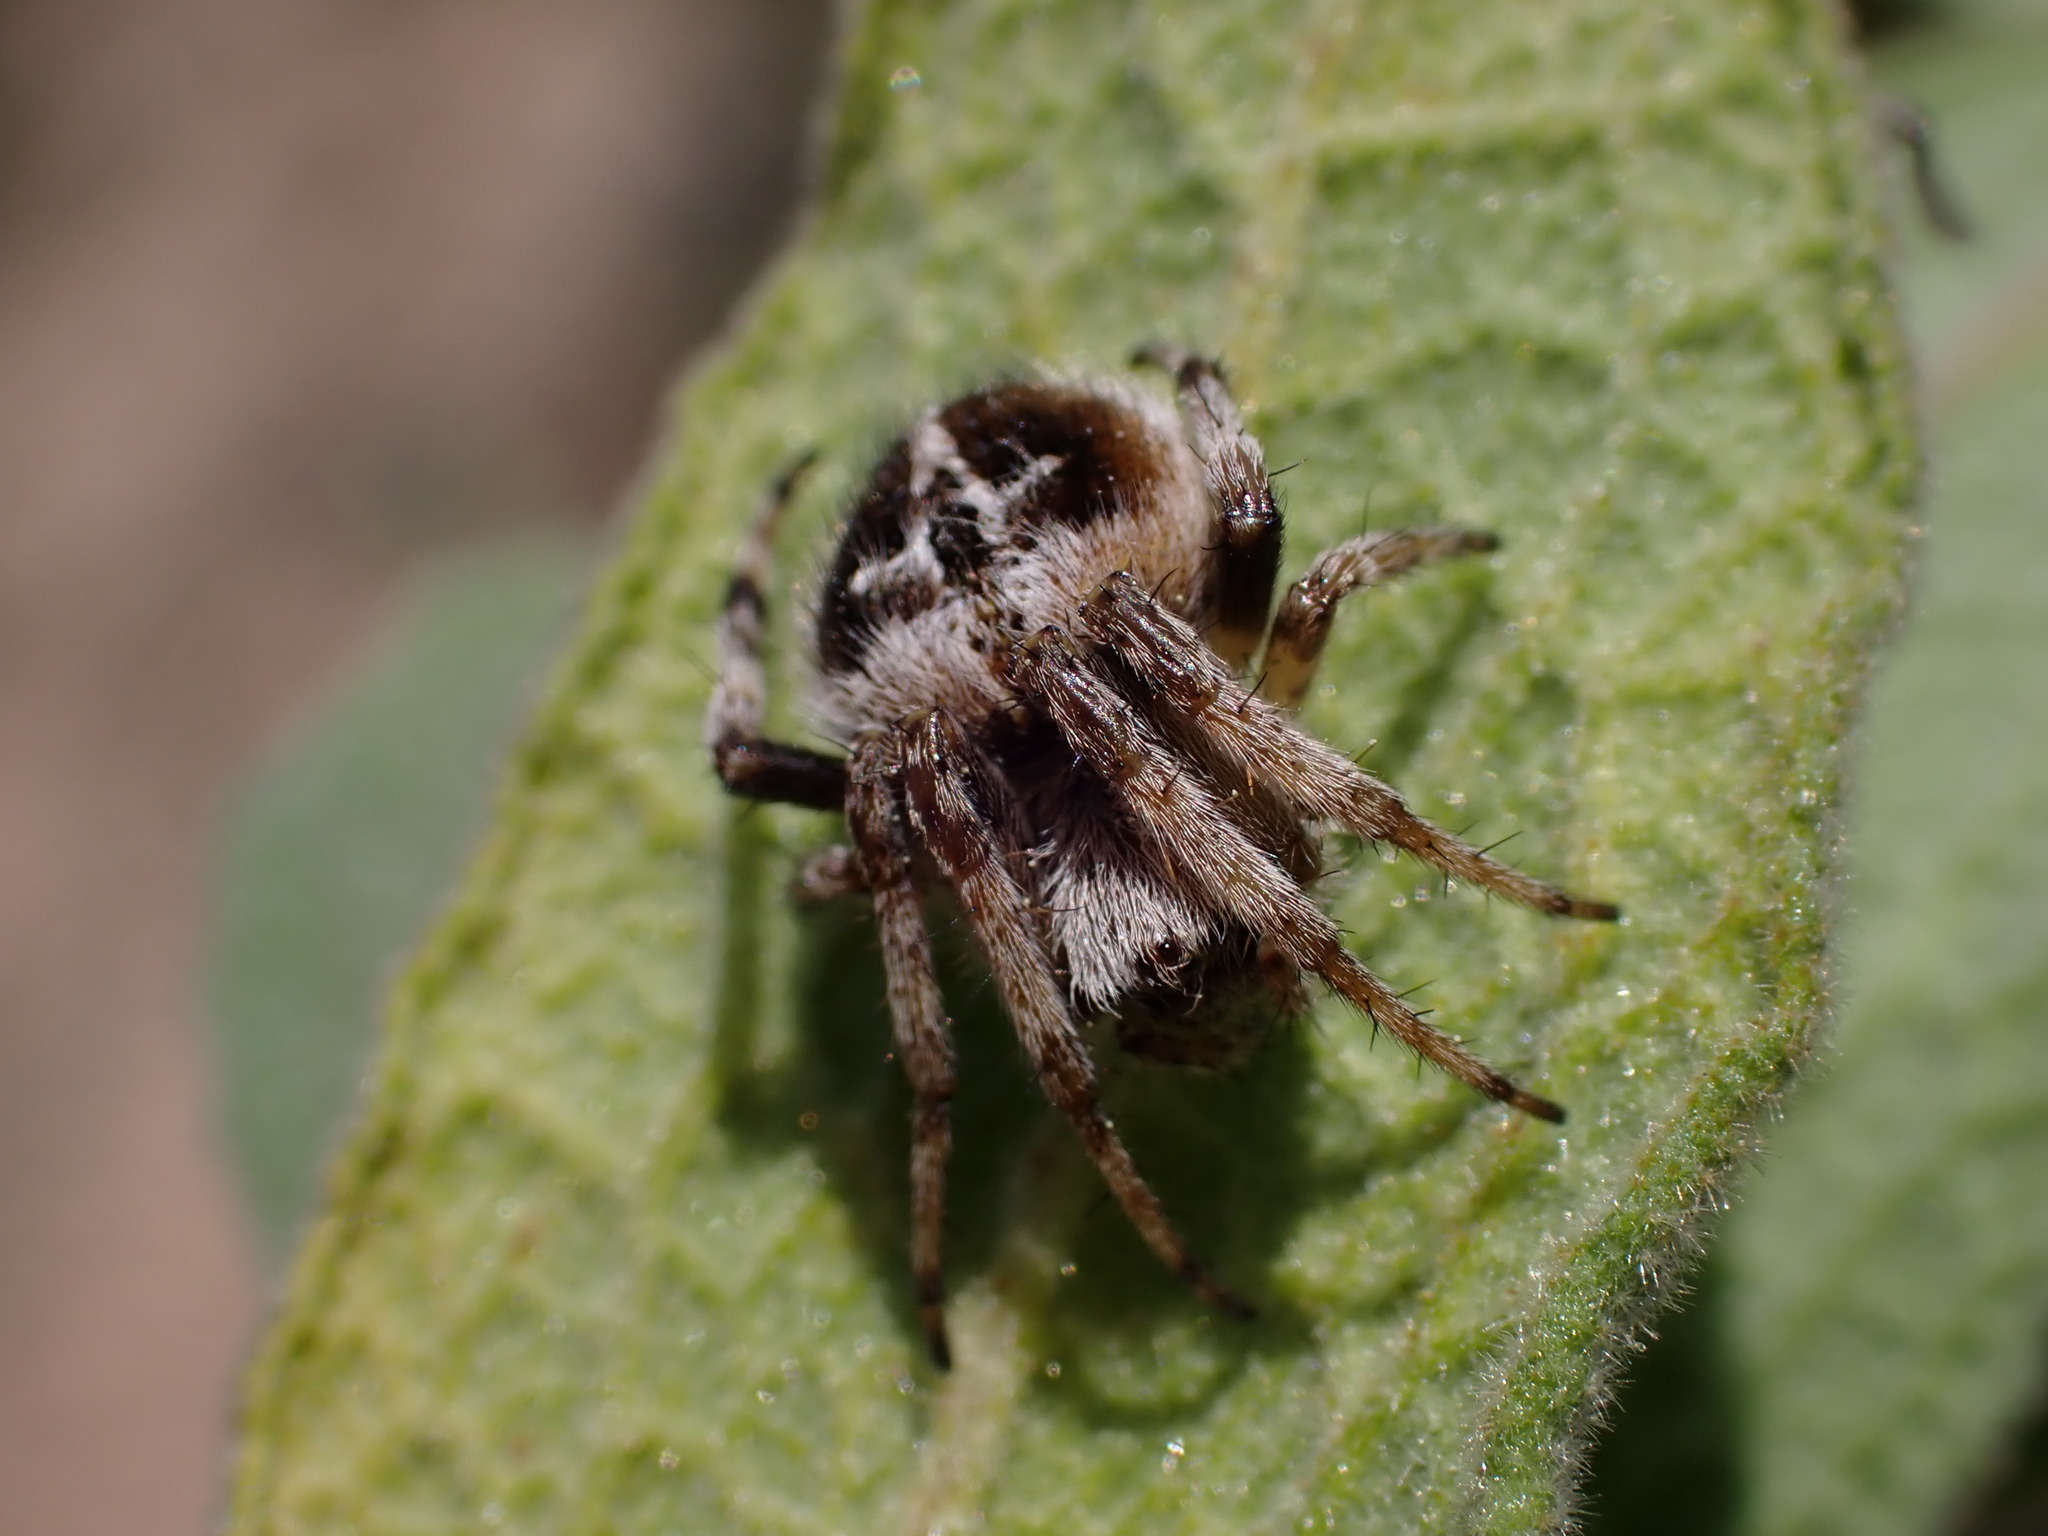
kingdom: Animalia
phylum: Arthropoda
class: Arachnida
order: Araneae
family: Araneidae
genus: Agalenatea
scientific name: Agalenatea redii
